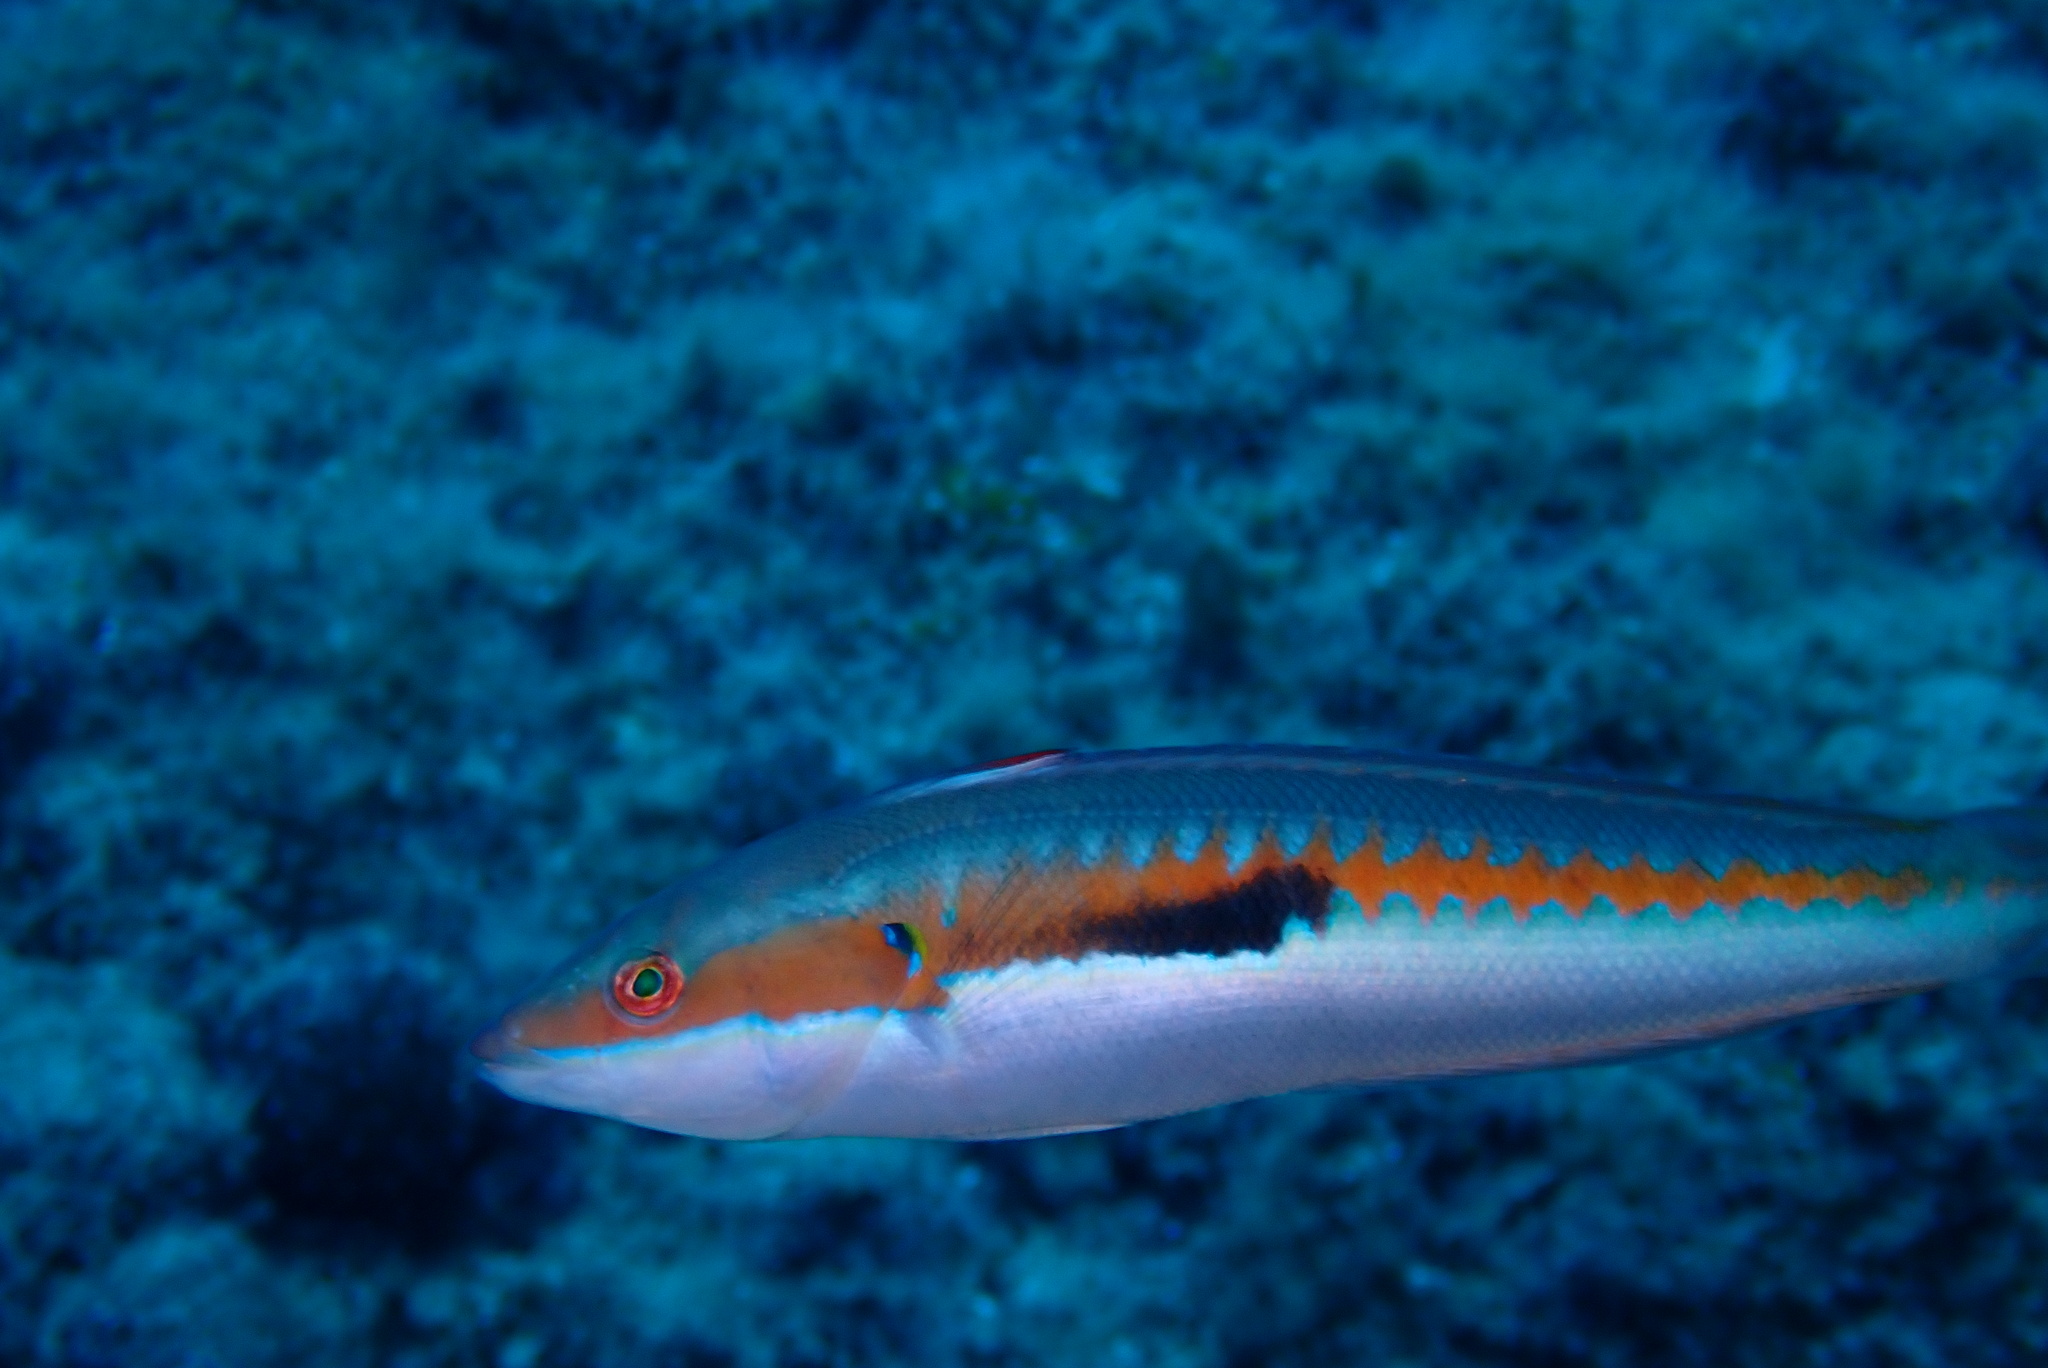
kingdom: Animalia
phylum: Chordata
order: Perciformes
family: Labridae
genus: Coris
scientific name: Coris julis
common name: Rainbow wrasse
